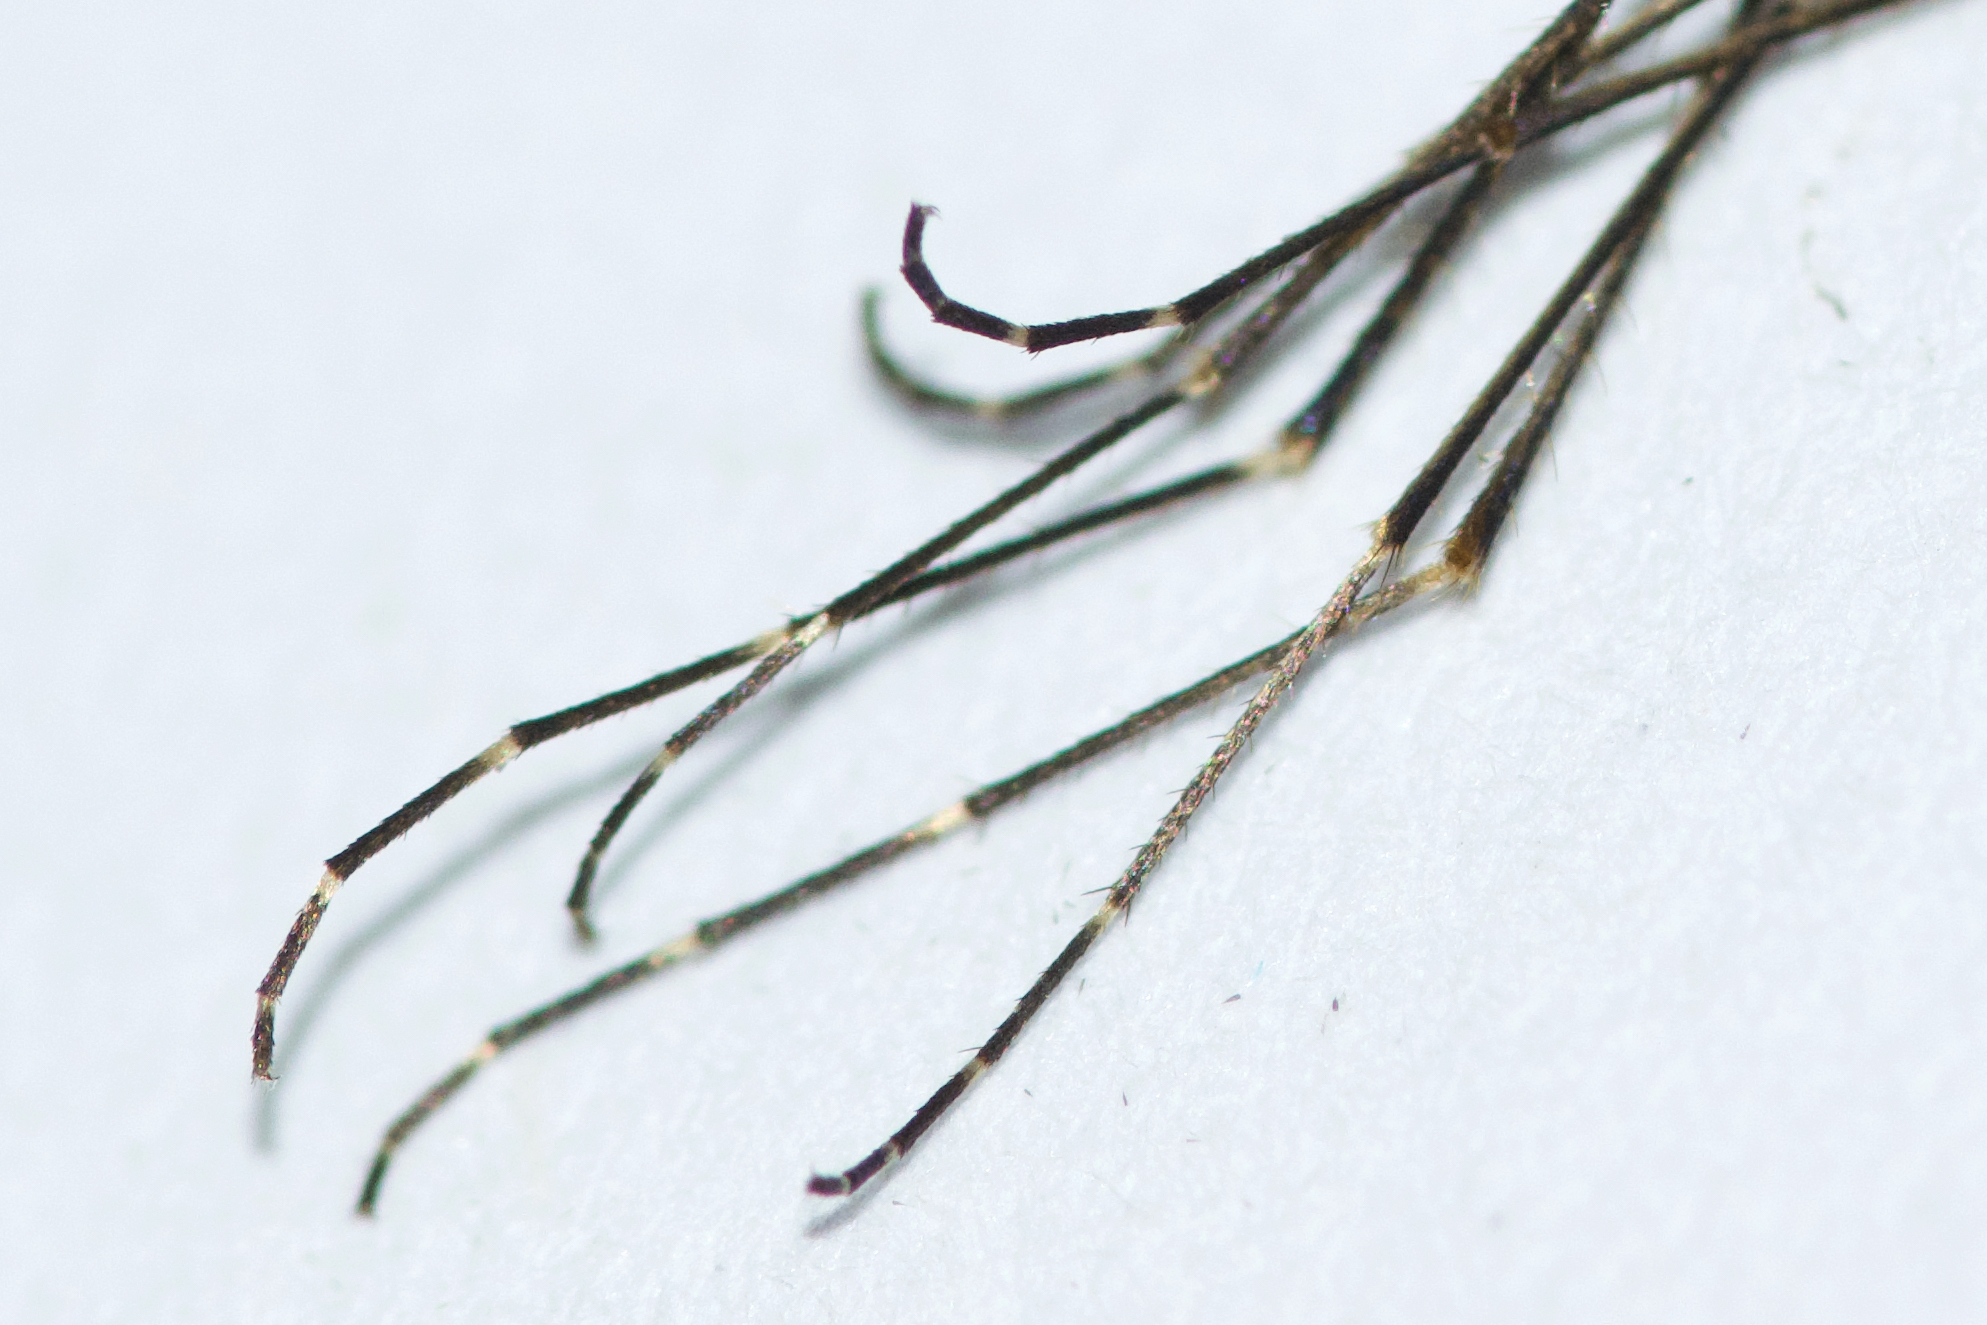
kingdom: Animalia
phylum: Arthropoda
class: Insecta
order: Diptera
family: Culicidae
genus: Aedes
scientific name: Aedes vexans
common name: Inland floodwater mosquito
